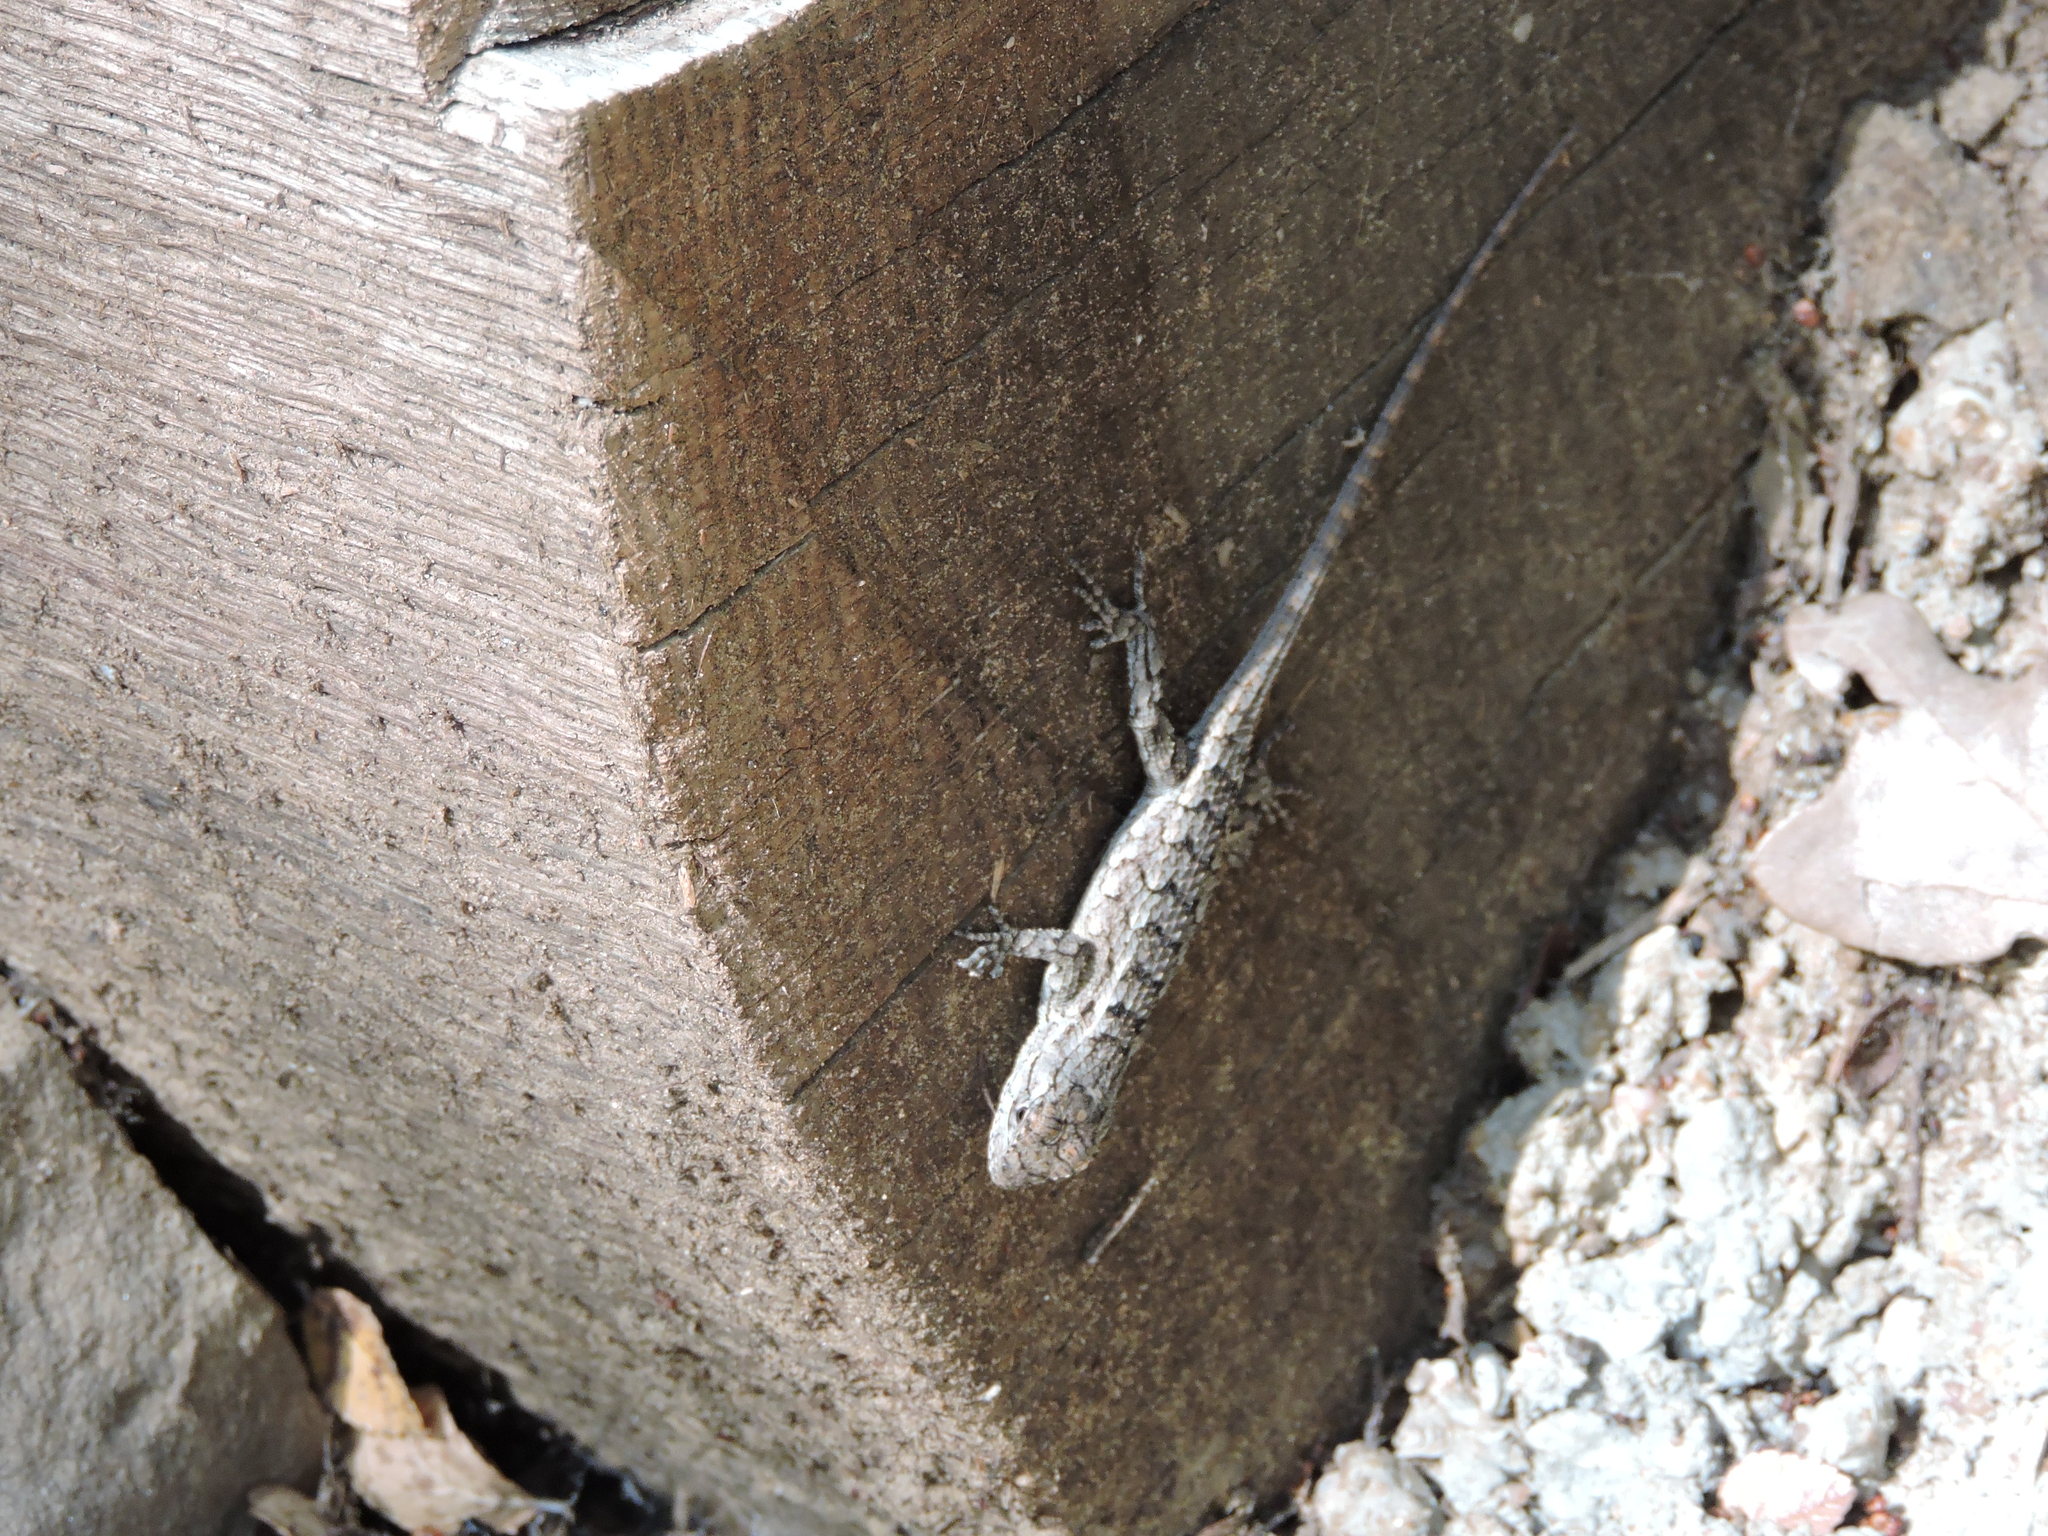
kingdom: Animalia
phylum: Chordata
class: Squamata
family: Phrynosomatidae
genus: Sceloporus
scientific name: Sceloporus olivaceus
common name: Texas spiny lizard
